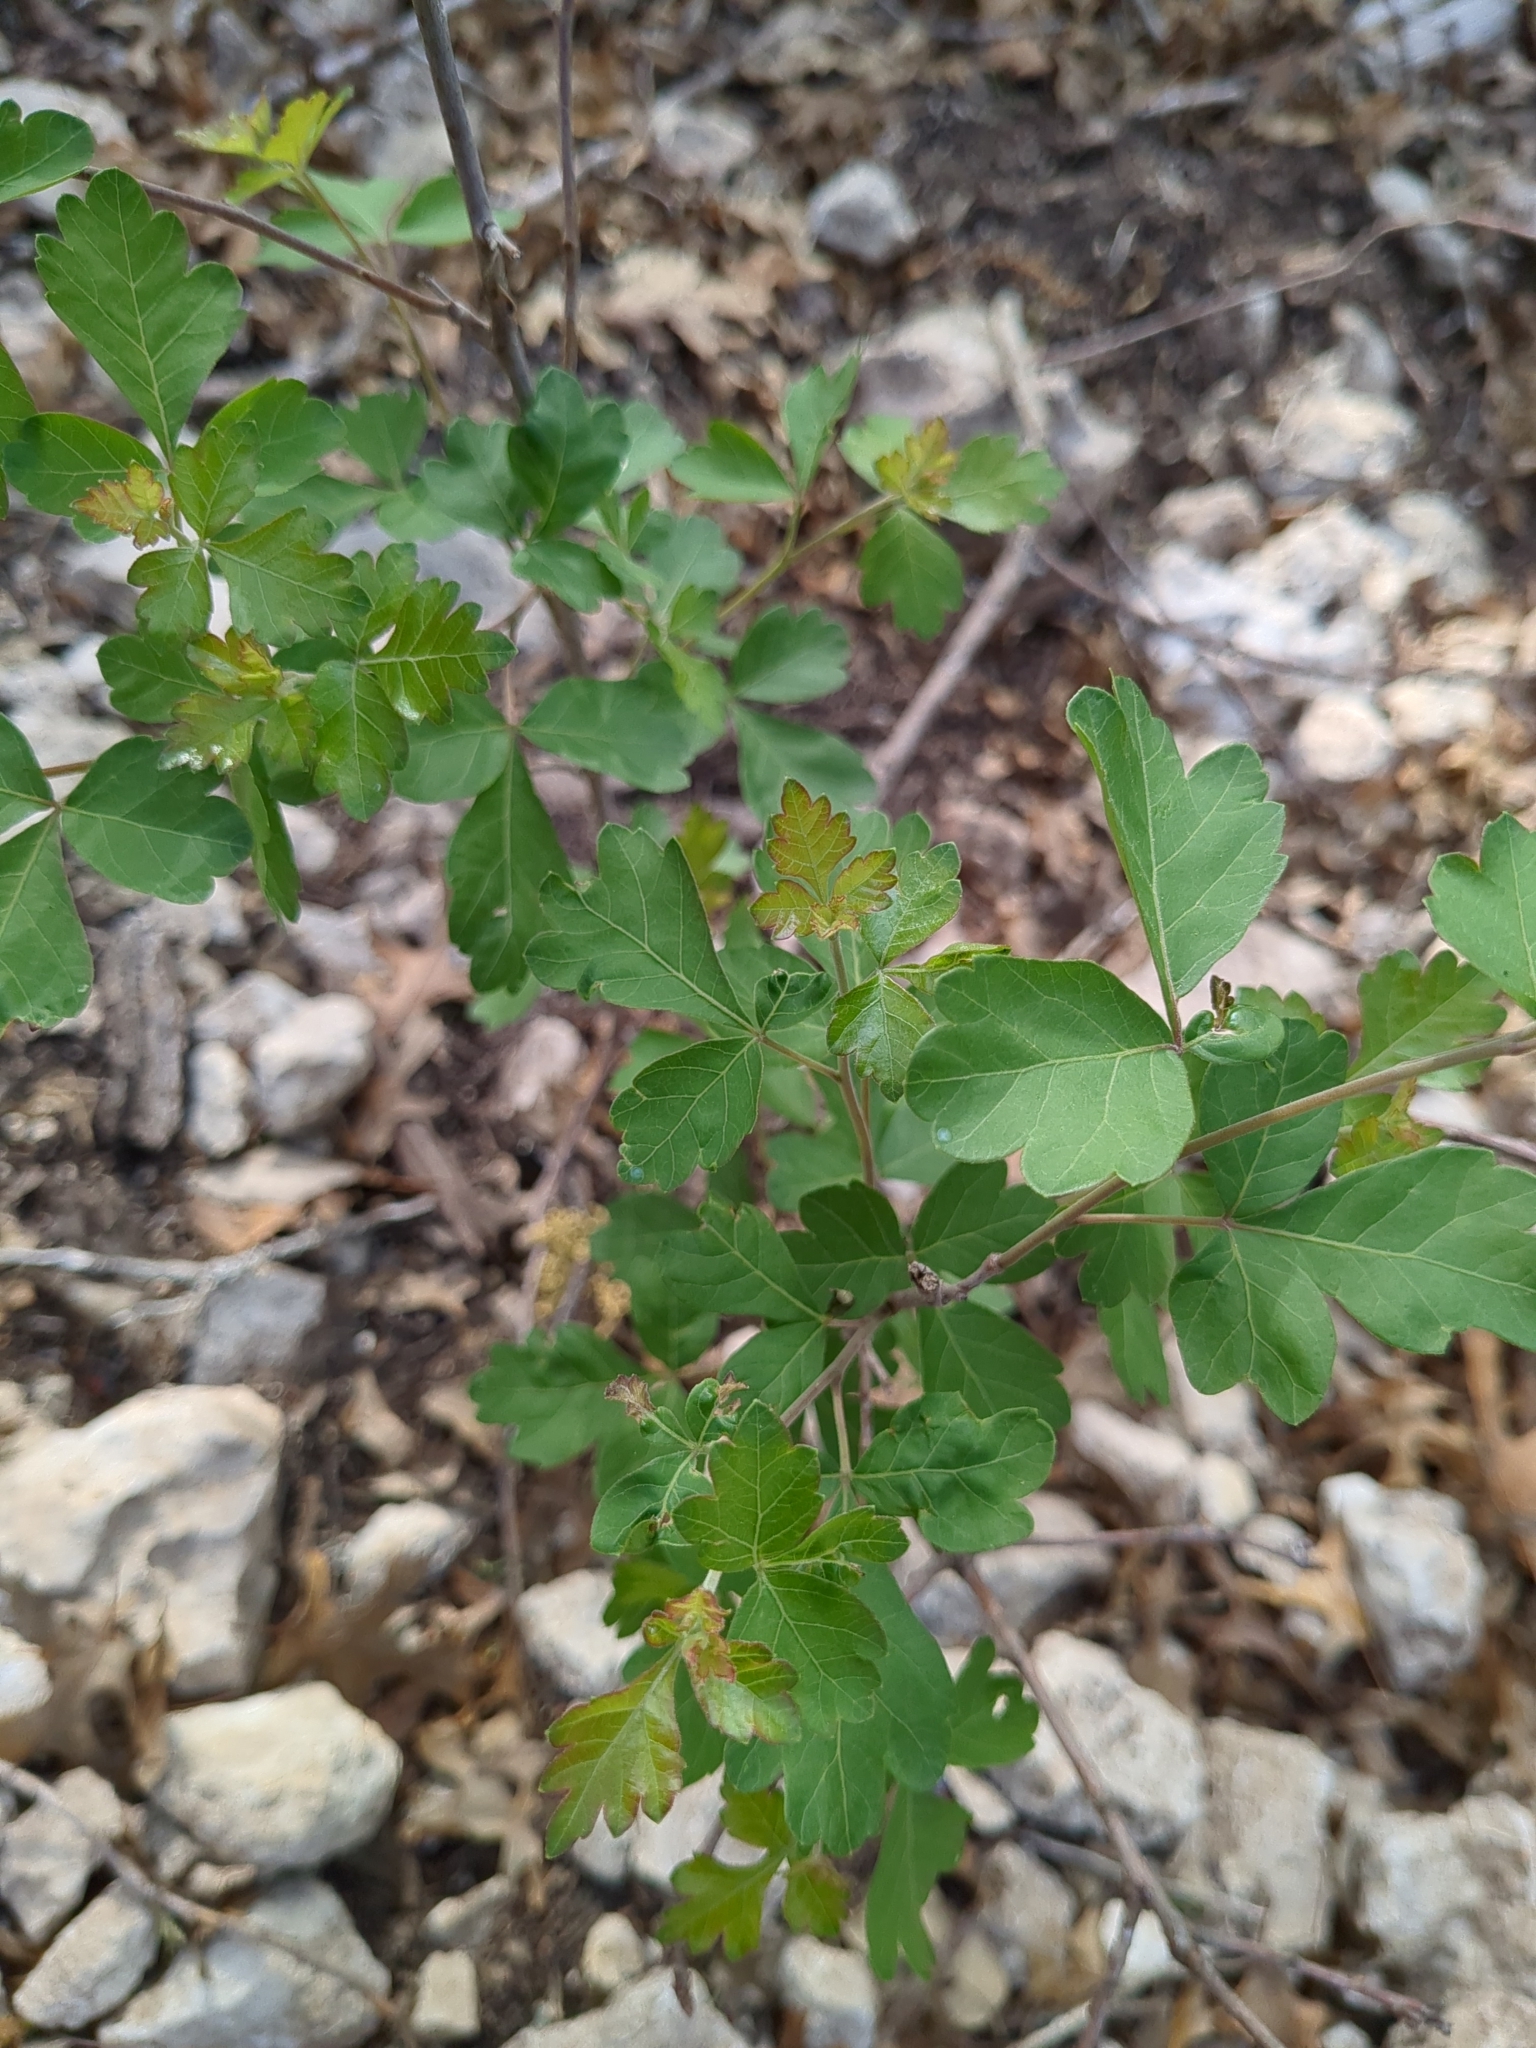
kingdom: Plantae
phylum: Tracheophyta
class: Magnoliopsida
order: Sapindales
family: Anacardiaceae
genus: Rhus
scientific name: Rhus aromatica
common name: Aromatic sumac
